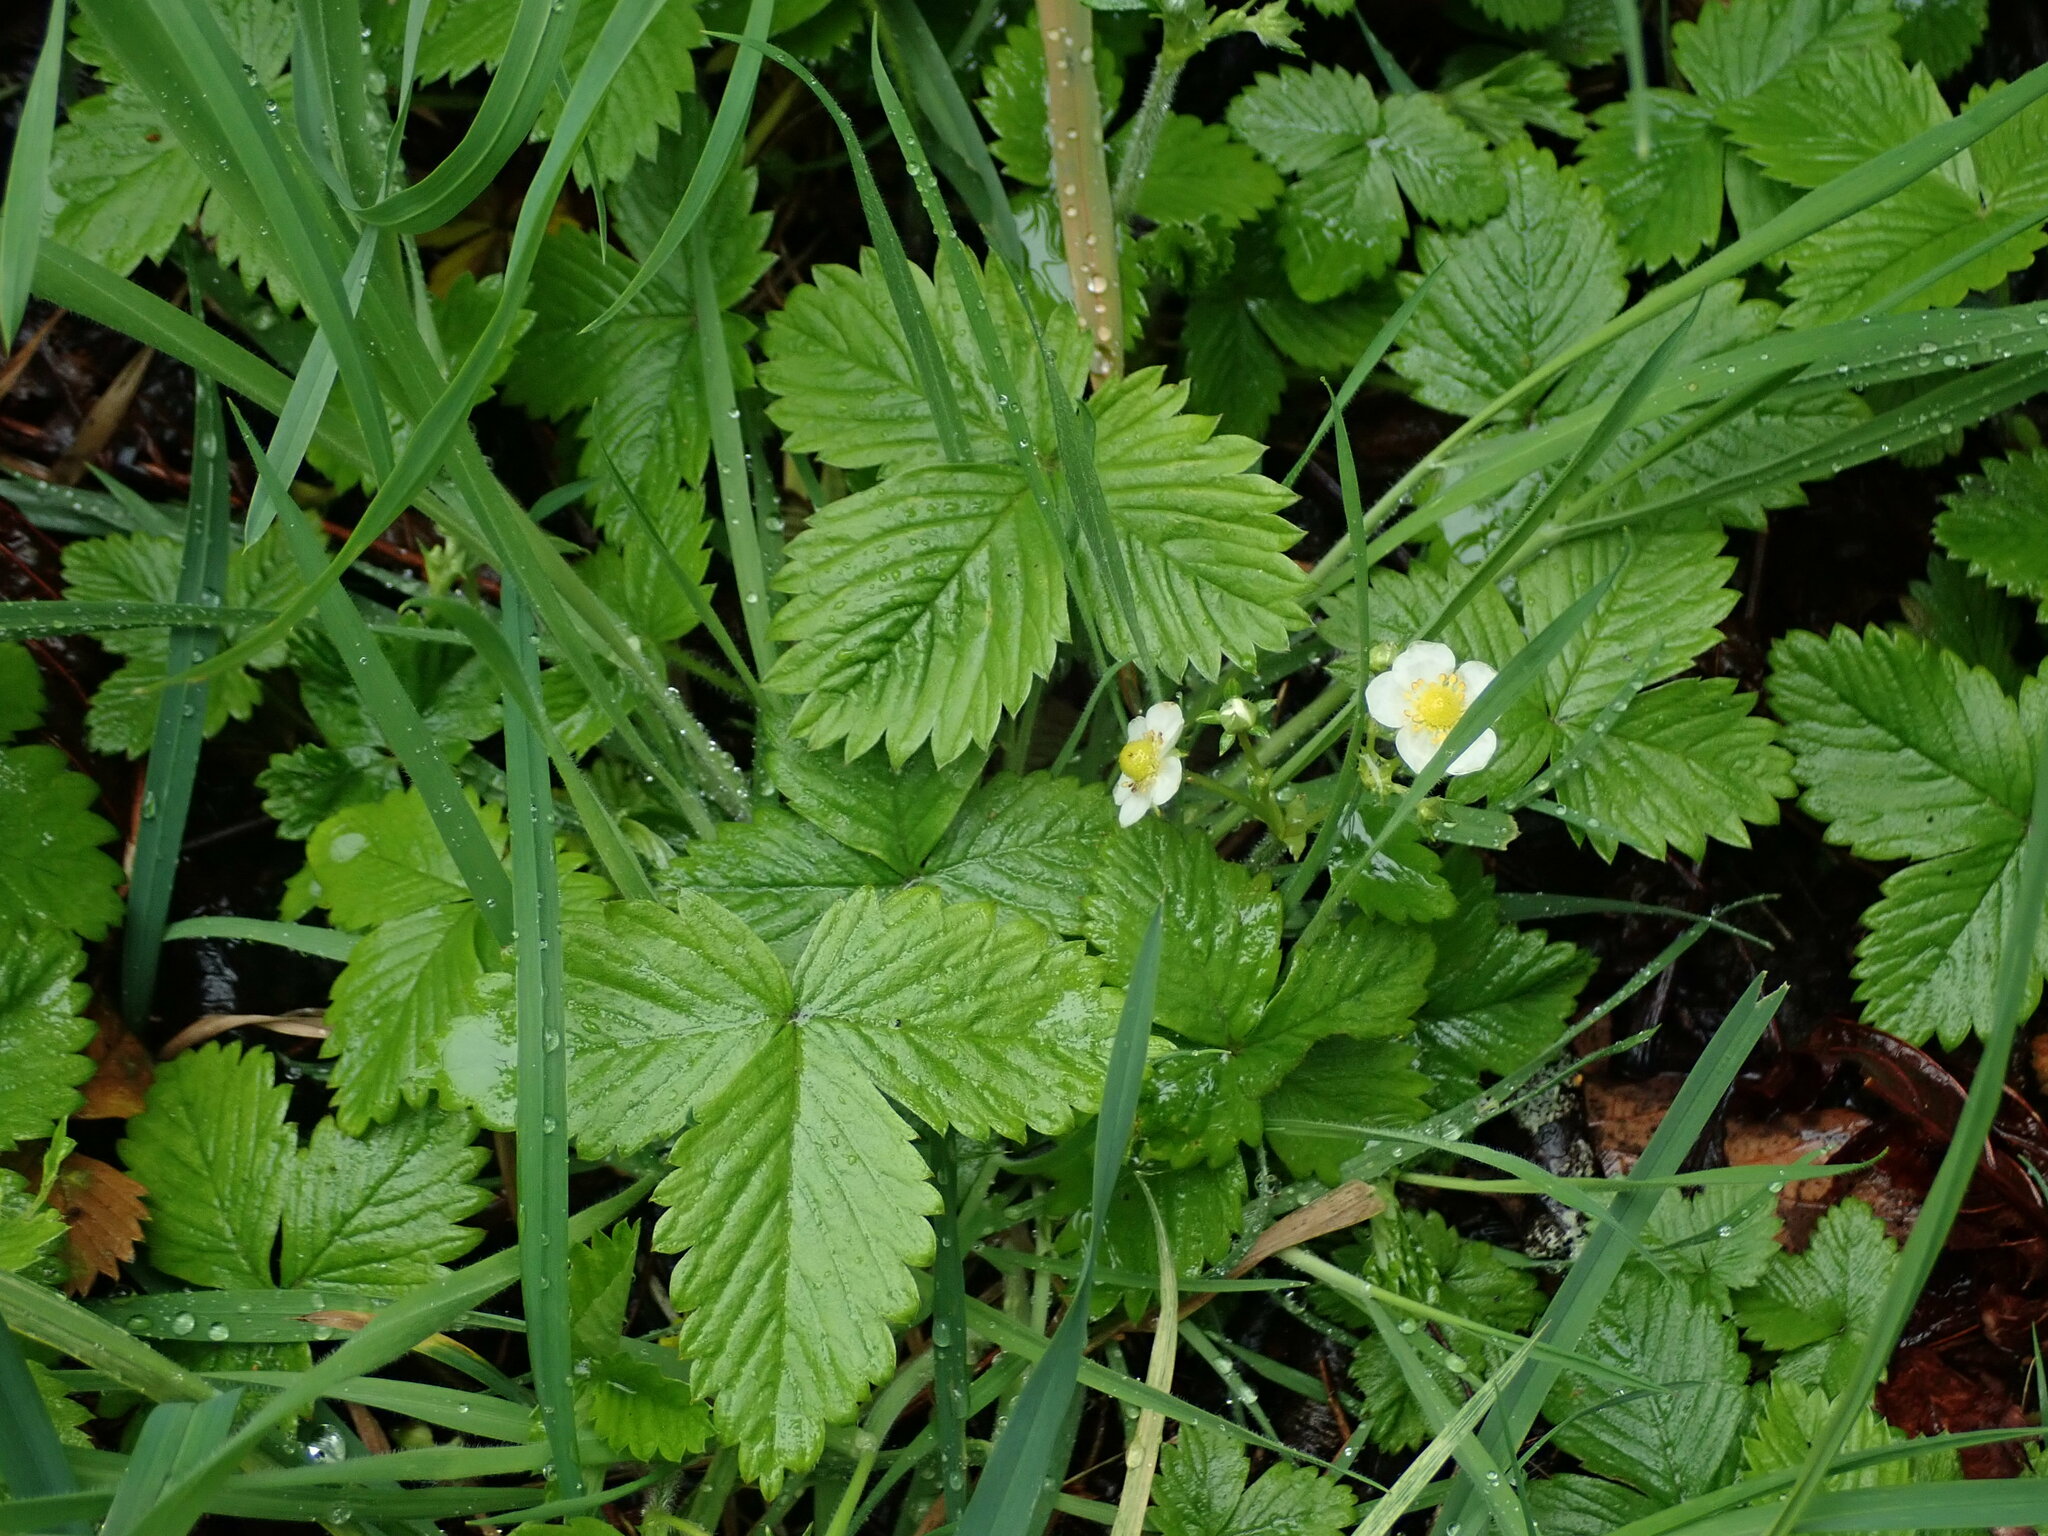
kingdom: Plantae
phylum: Tracheophyta
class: Magnoliopsida
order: Rosales
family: Rosaceae
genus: Fragaria
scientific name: Fragaria vesca
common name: Wild strawberry
